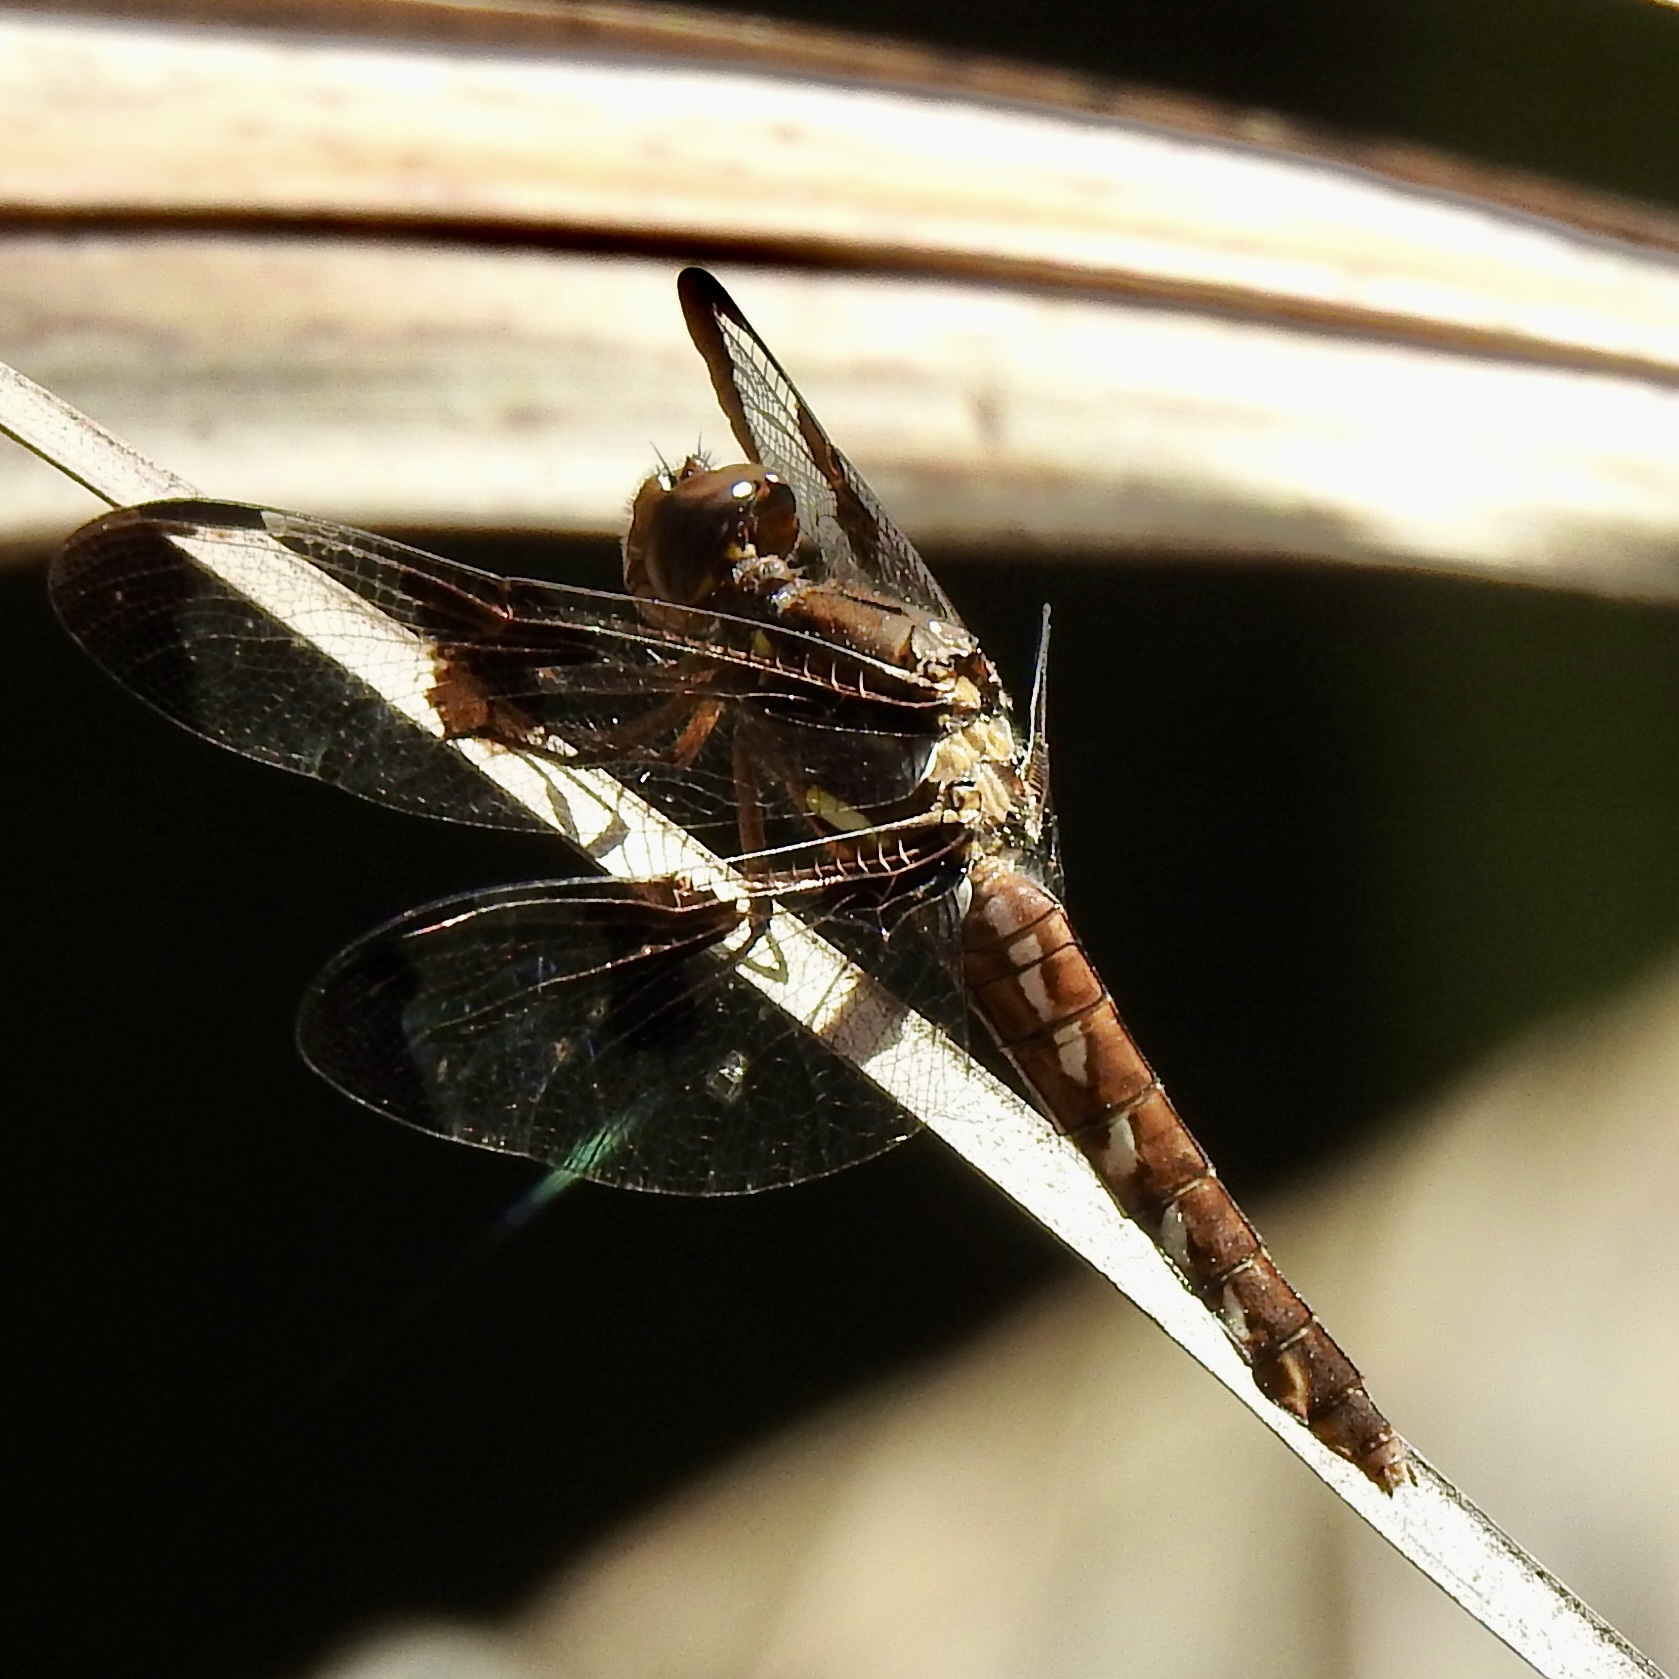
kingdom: Animalia
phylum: Arthropoda
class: Insecta
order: Odonata
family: Libellulidae
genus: Plathemis
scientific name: Plathemis lydia
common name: Common whitetail
